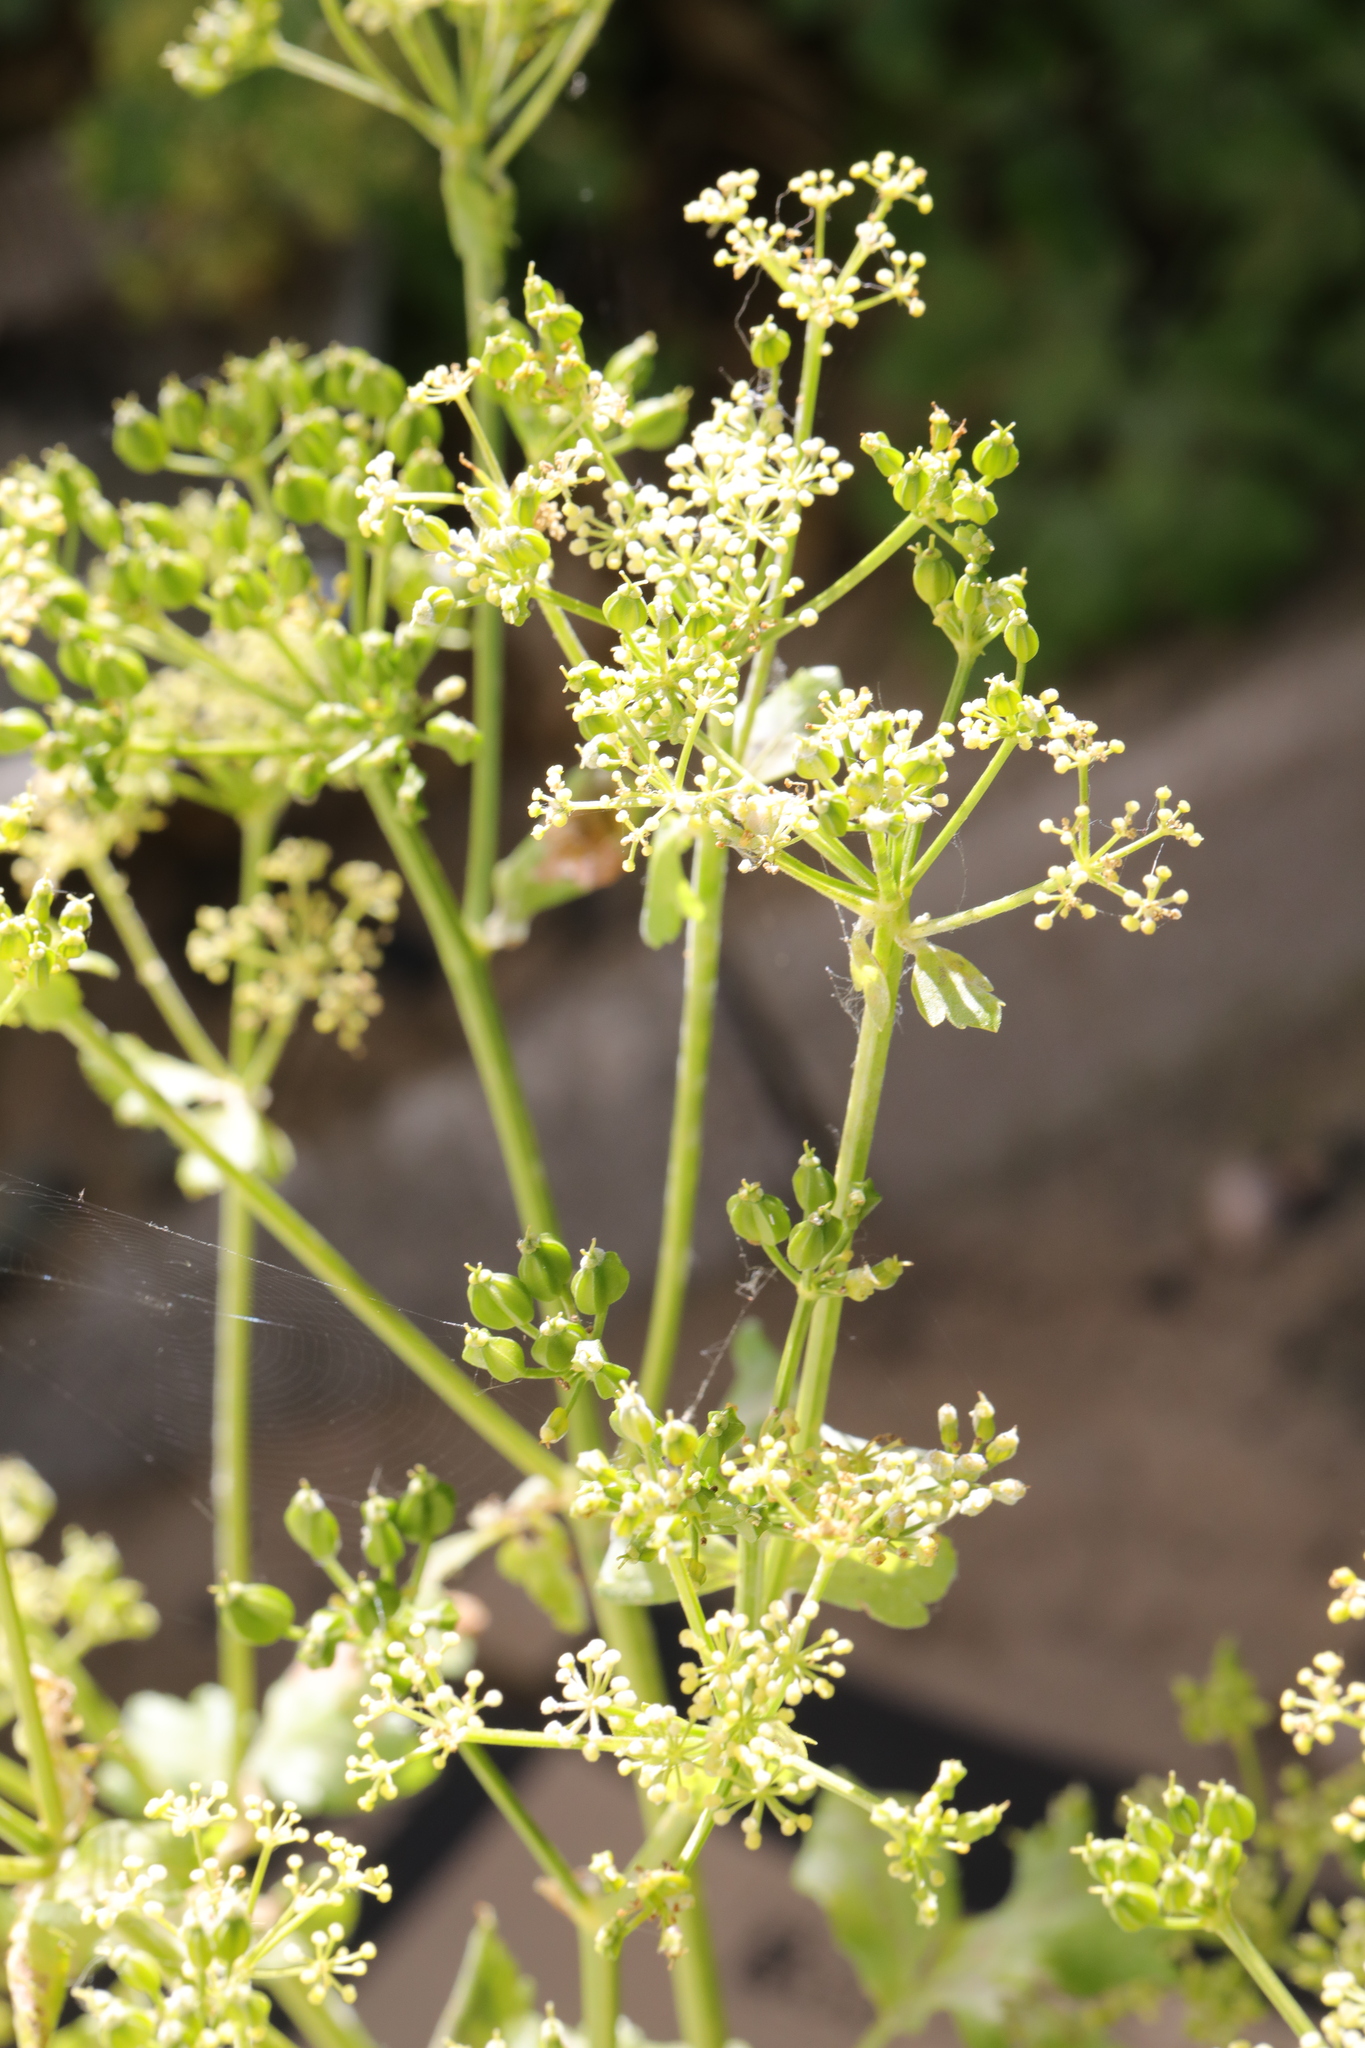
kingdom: Plantae
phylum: Tracheophyta
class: Magnoliopsida
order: Apiales
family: Apiaceae
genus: Smyrnium
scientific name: Smyrnium olusatrum
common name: Alexanders
